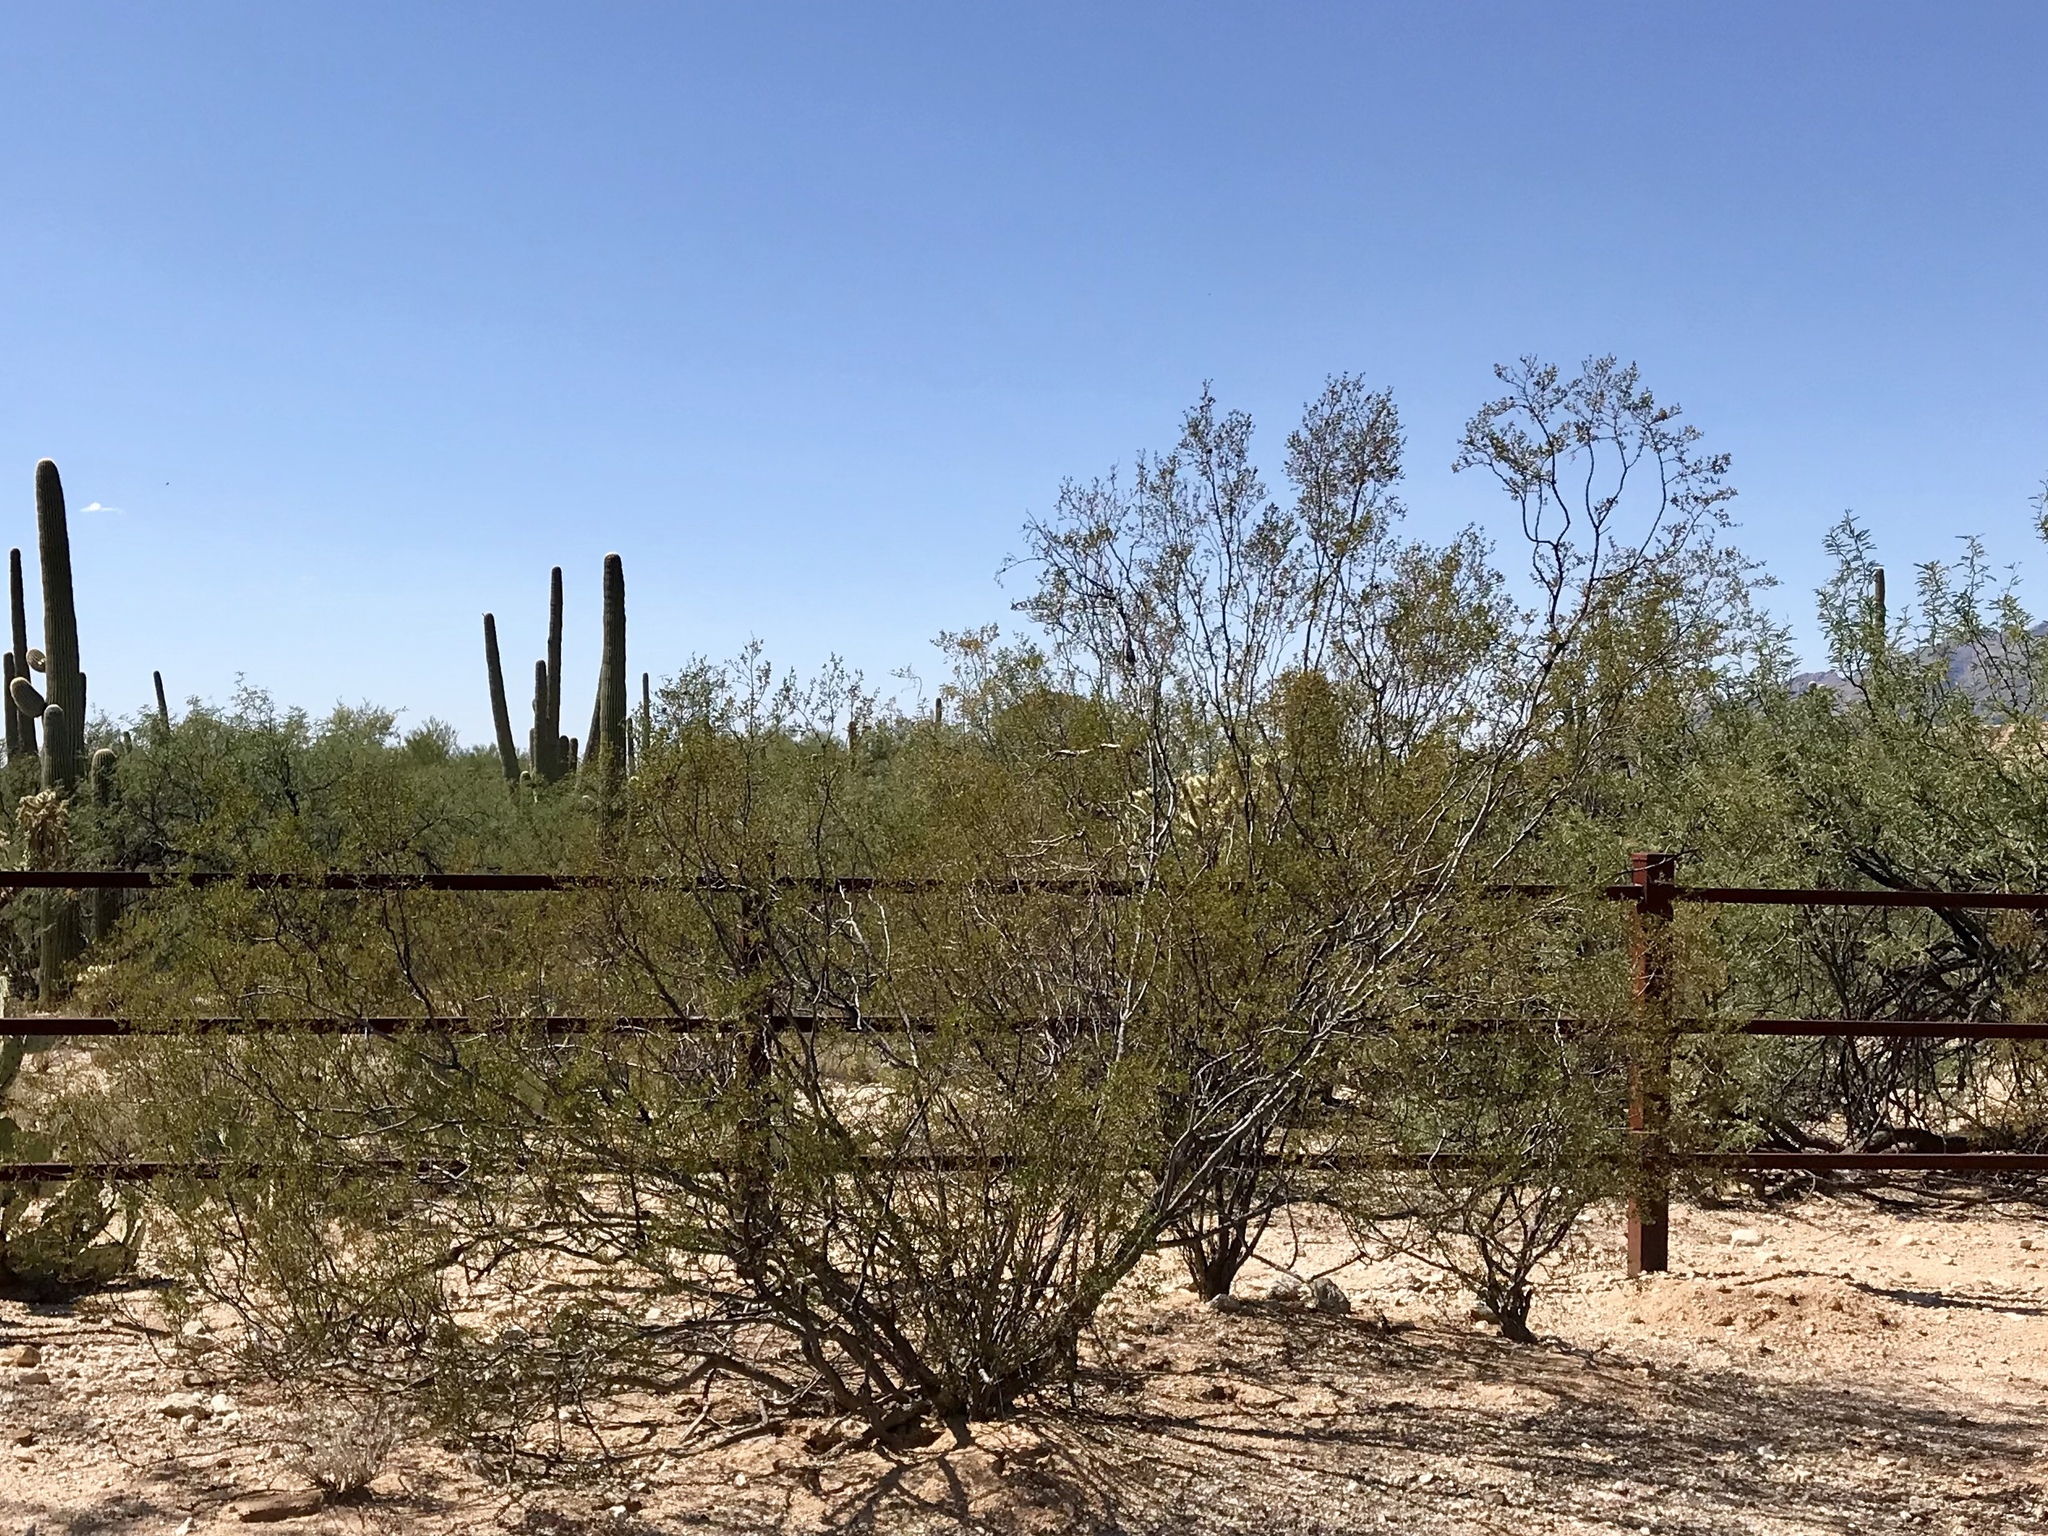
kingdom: Plantae
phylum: Tracheophyta
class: Magnoliopsida
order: Zygophyllales
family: Zygophyllaceae
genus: Larrea
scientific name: Larrea tridentata
